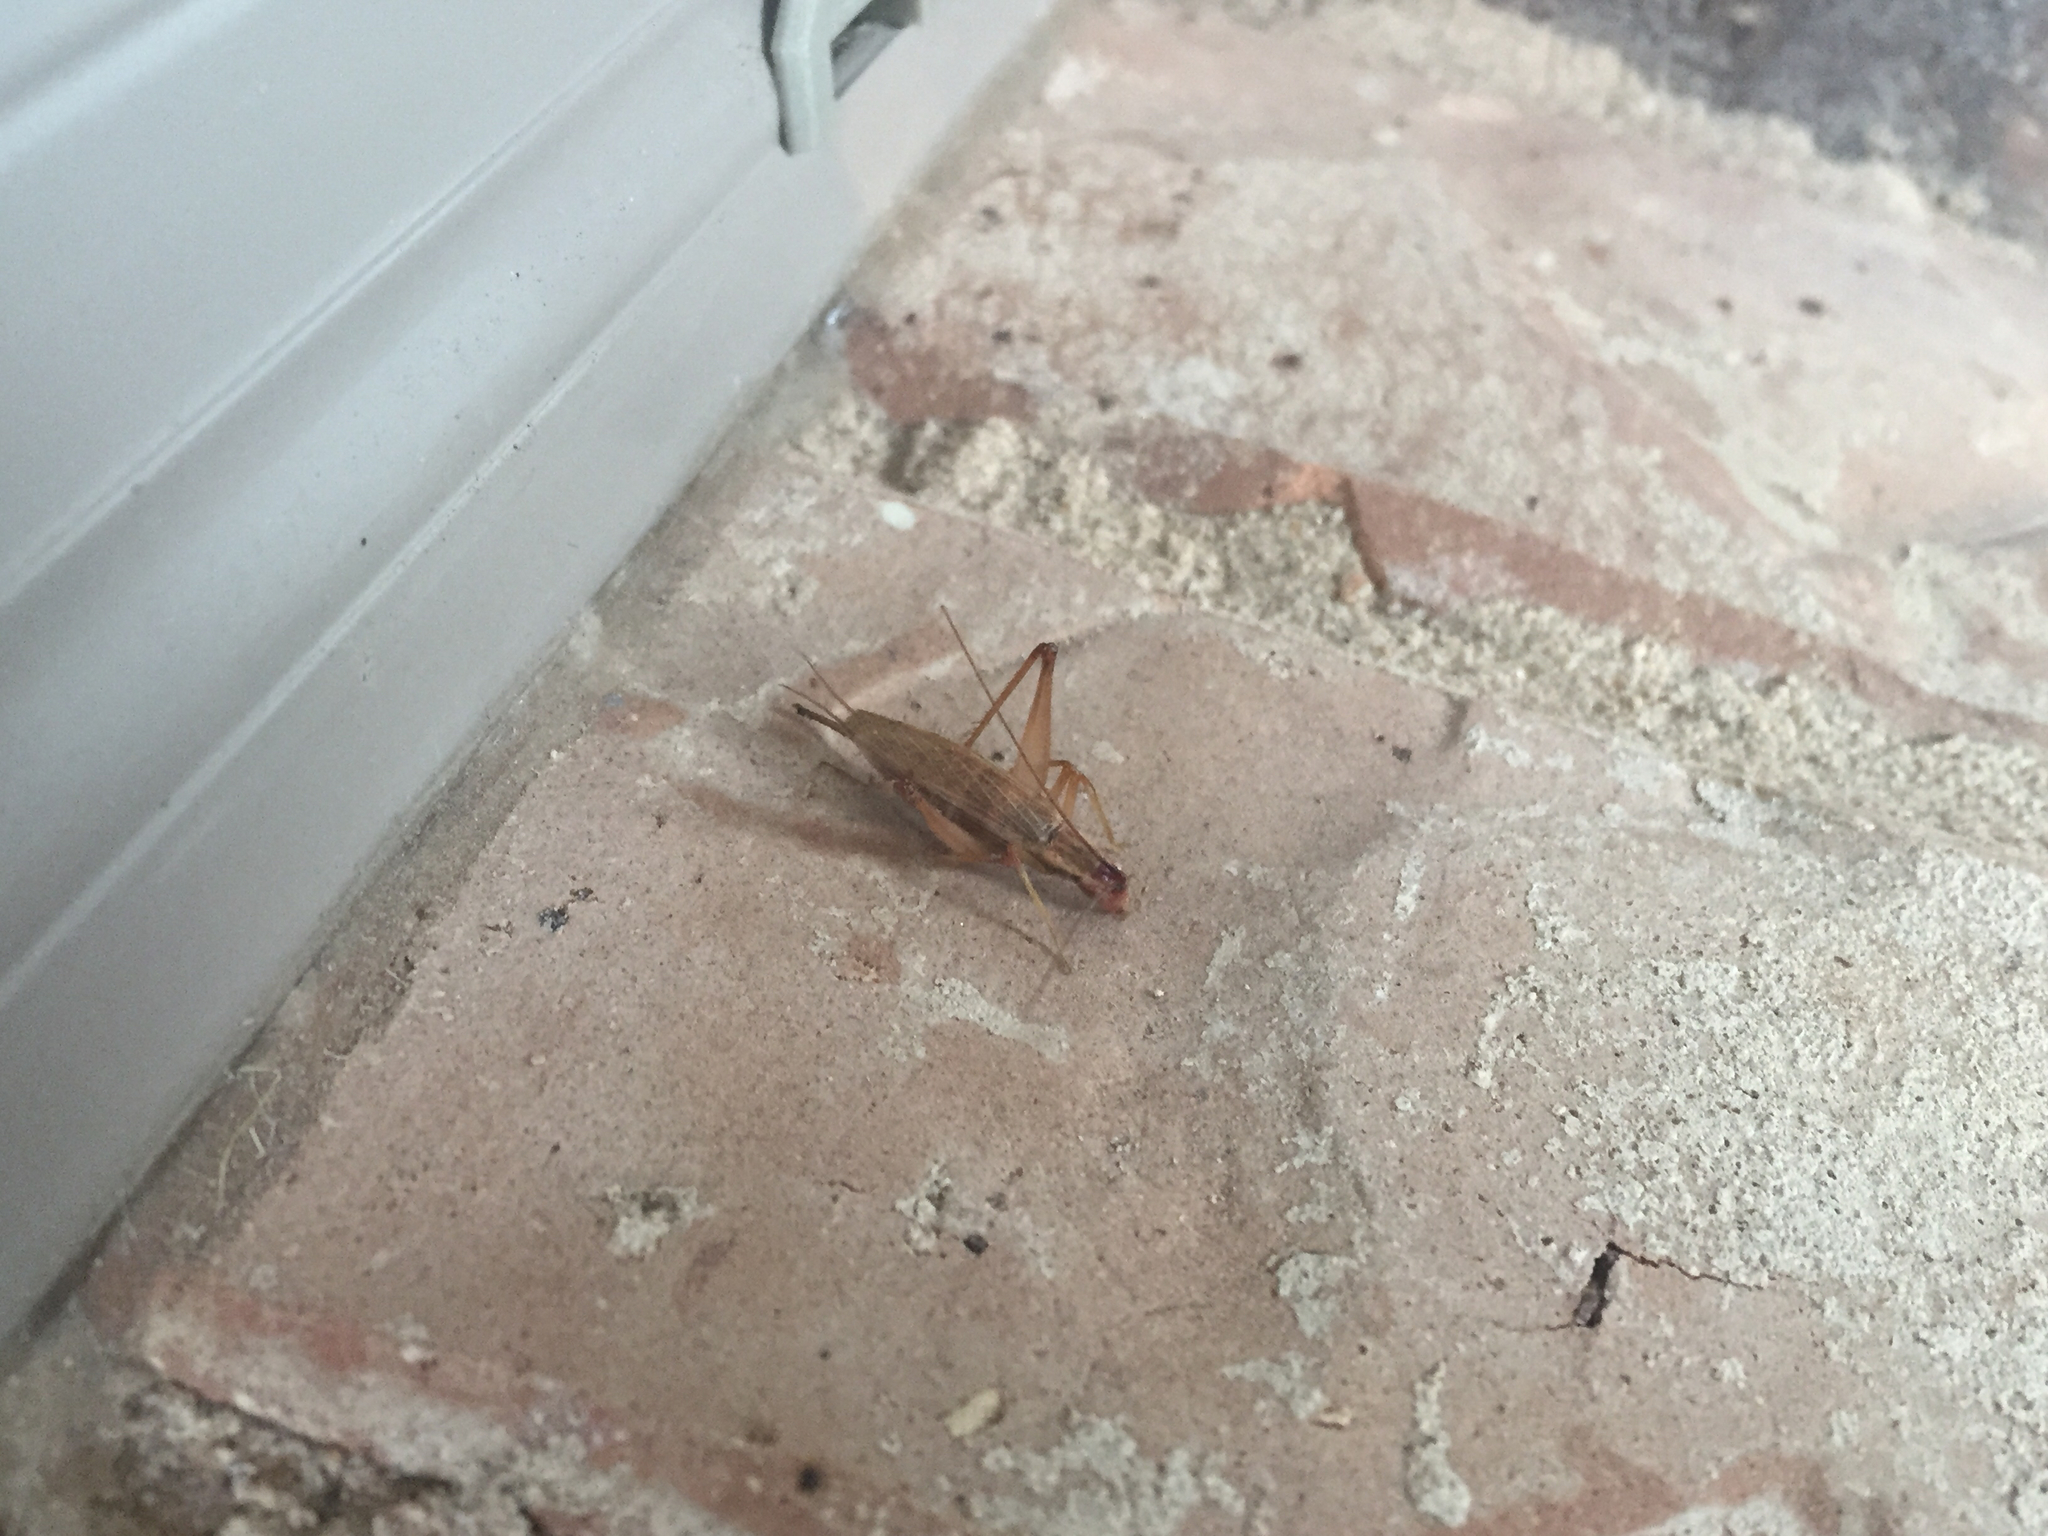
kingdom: Animalia
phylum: Arthropoda
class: Insecta
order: Orthoptera
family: Gryllidae
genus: Oecanthus
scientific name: Oecanthus varicornis
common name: Different-horned tree cricket
